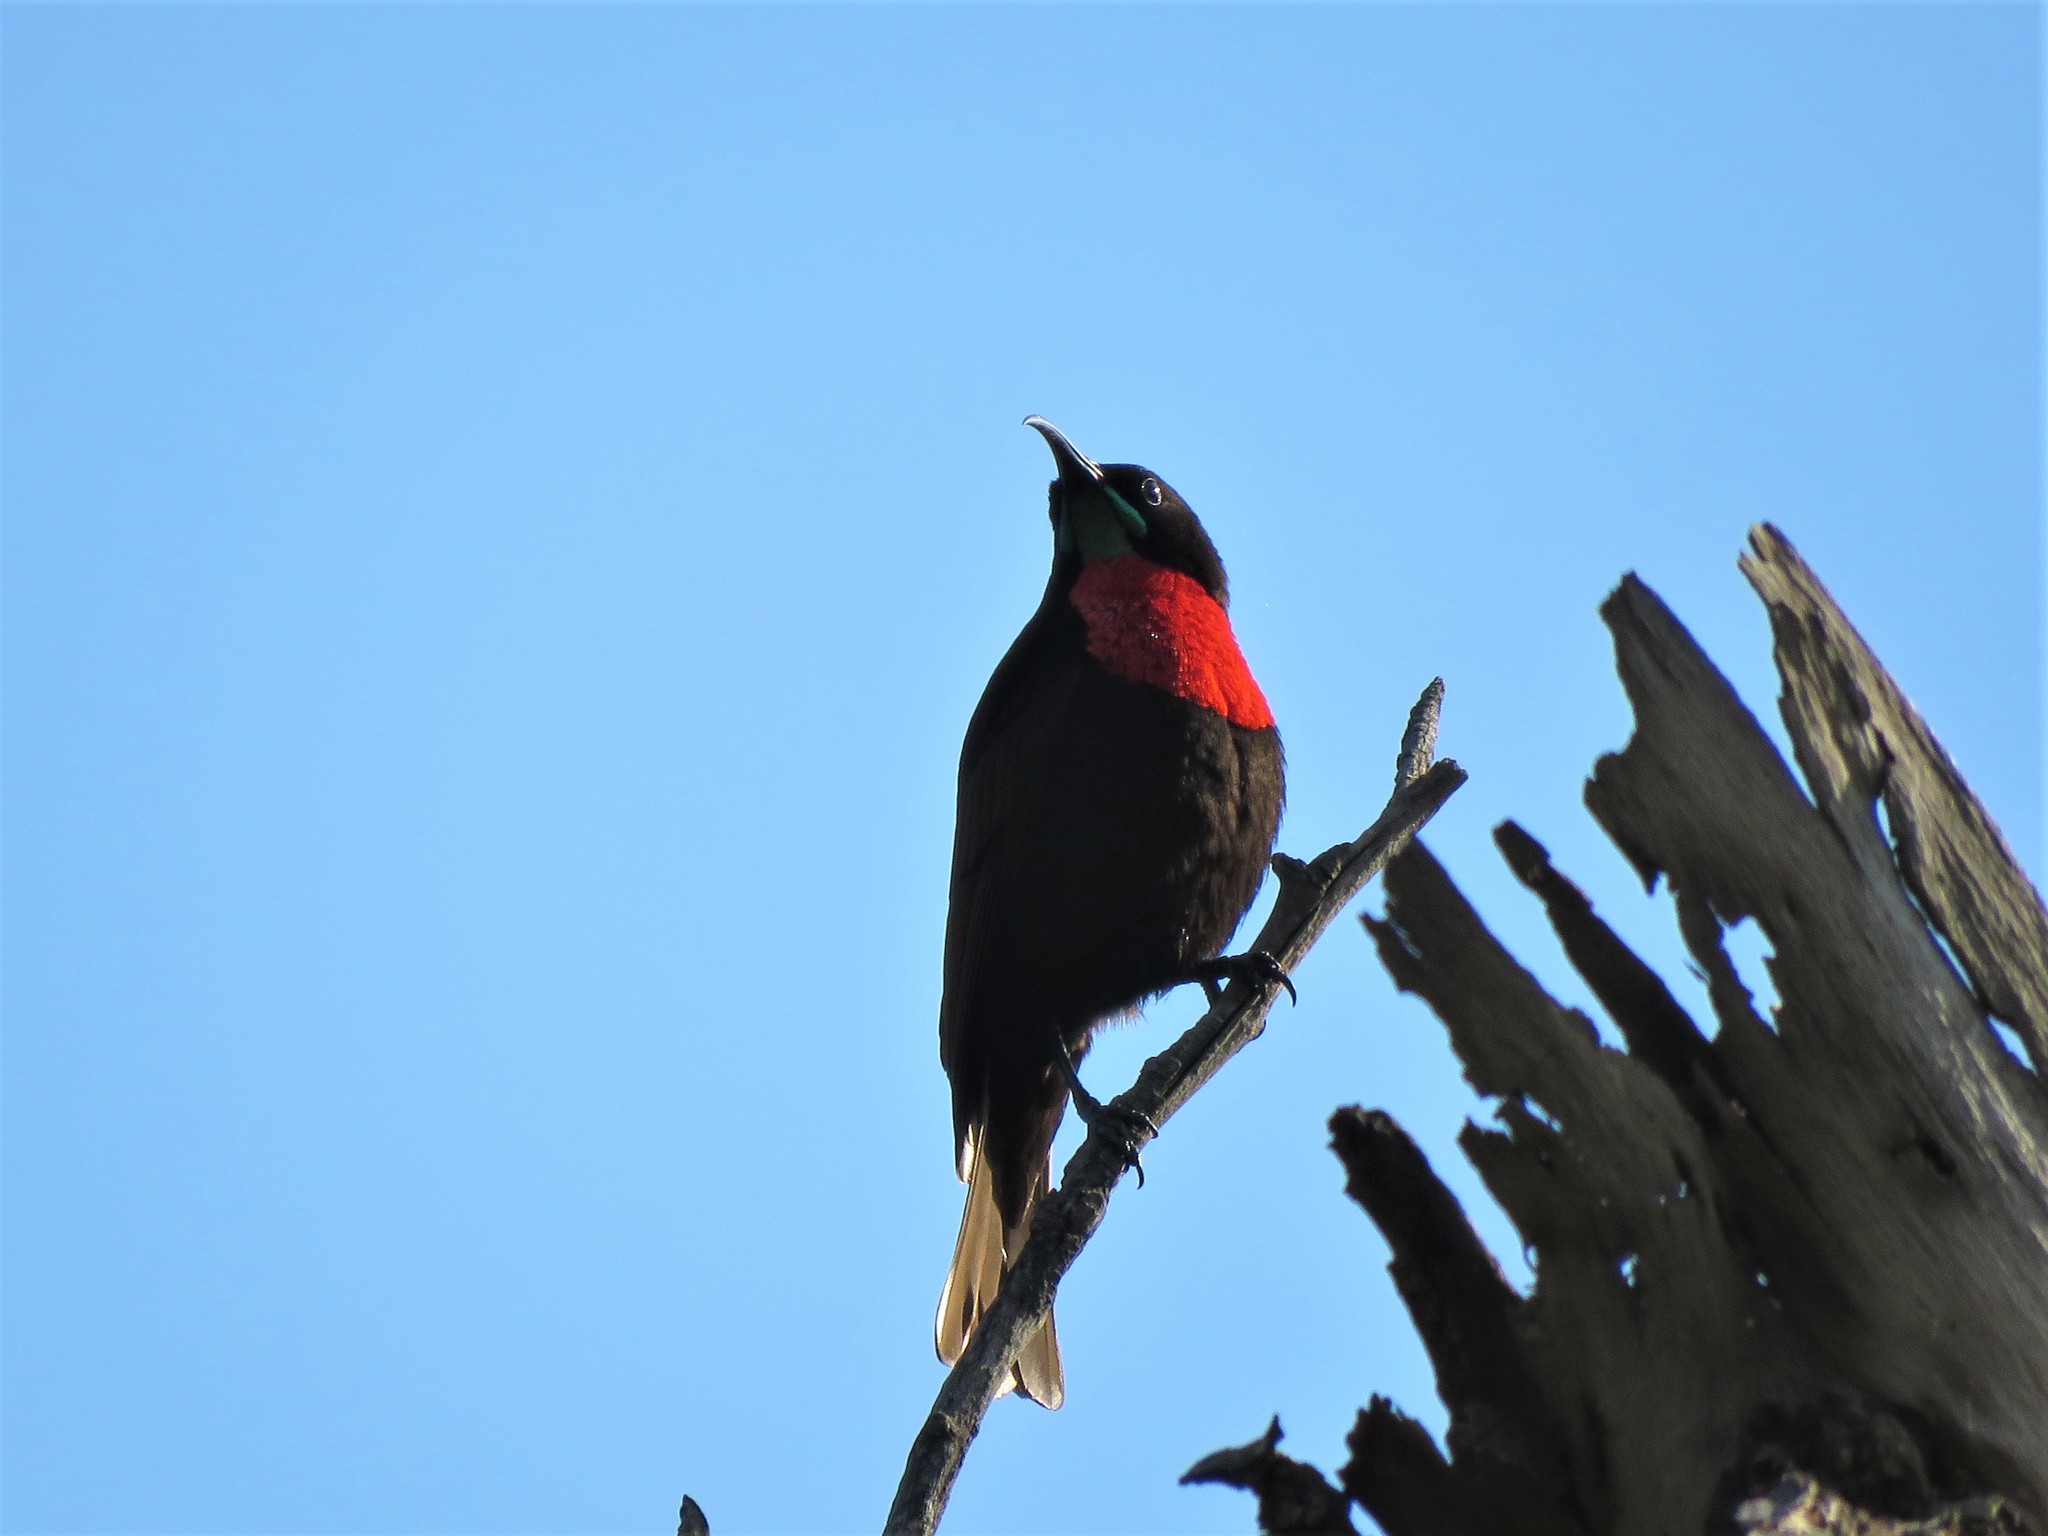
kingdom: Animalia
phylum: Chordata
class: Aves
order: Passeriformes
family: Nectariniidae
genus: Chalcomitra
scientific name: Chalcomitra senegalensis
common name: Scarlet-chested sunbird
